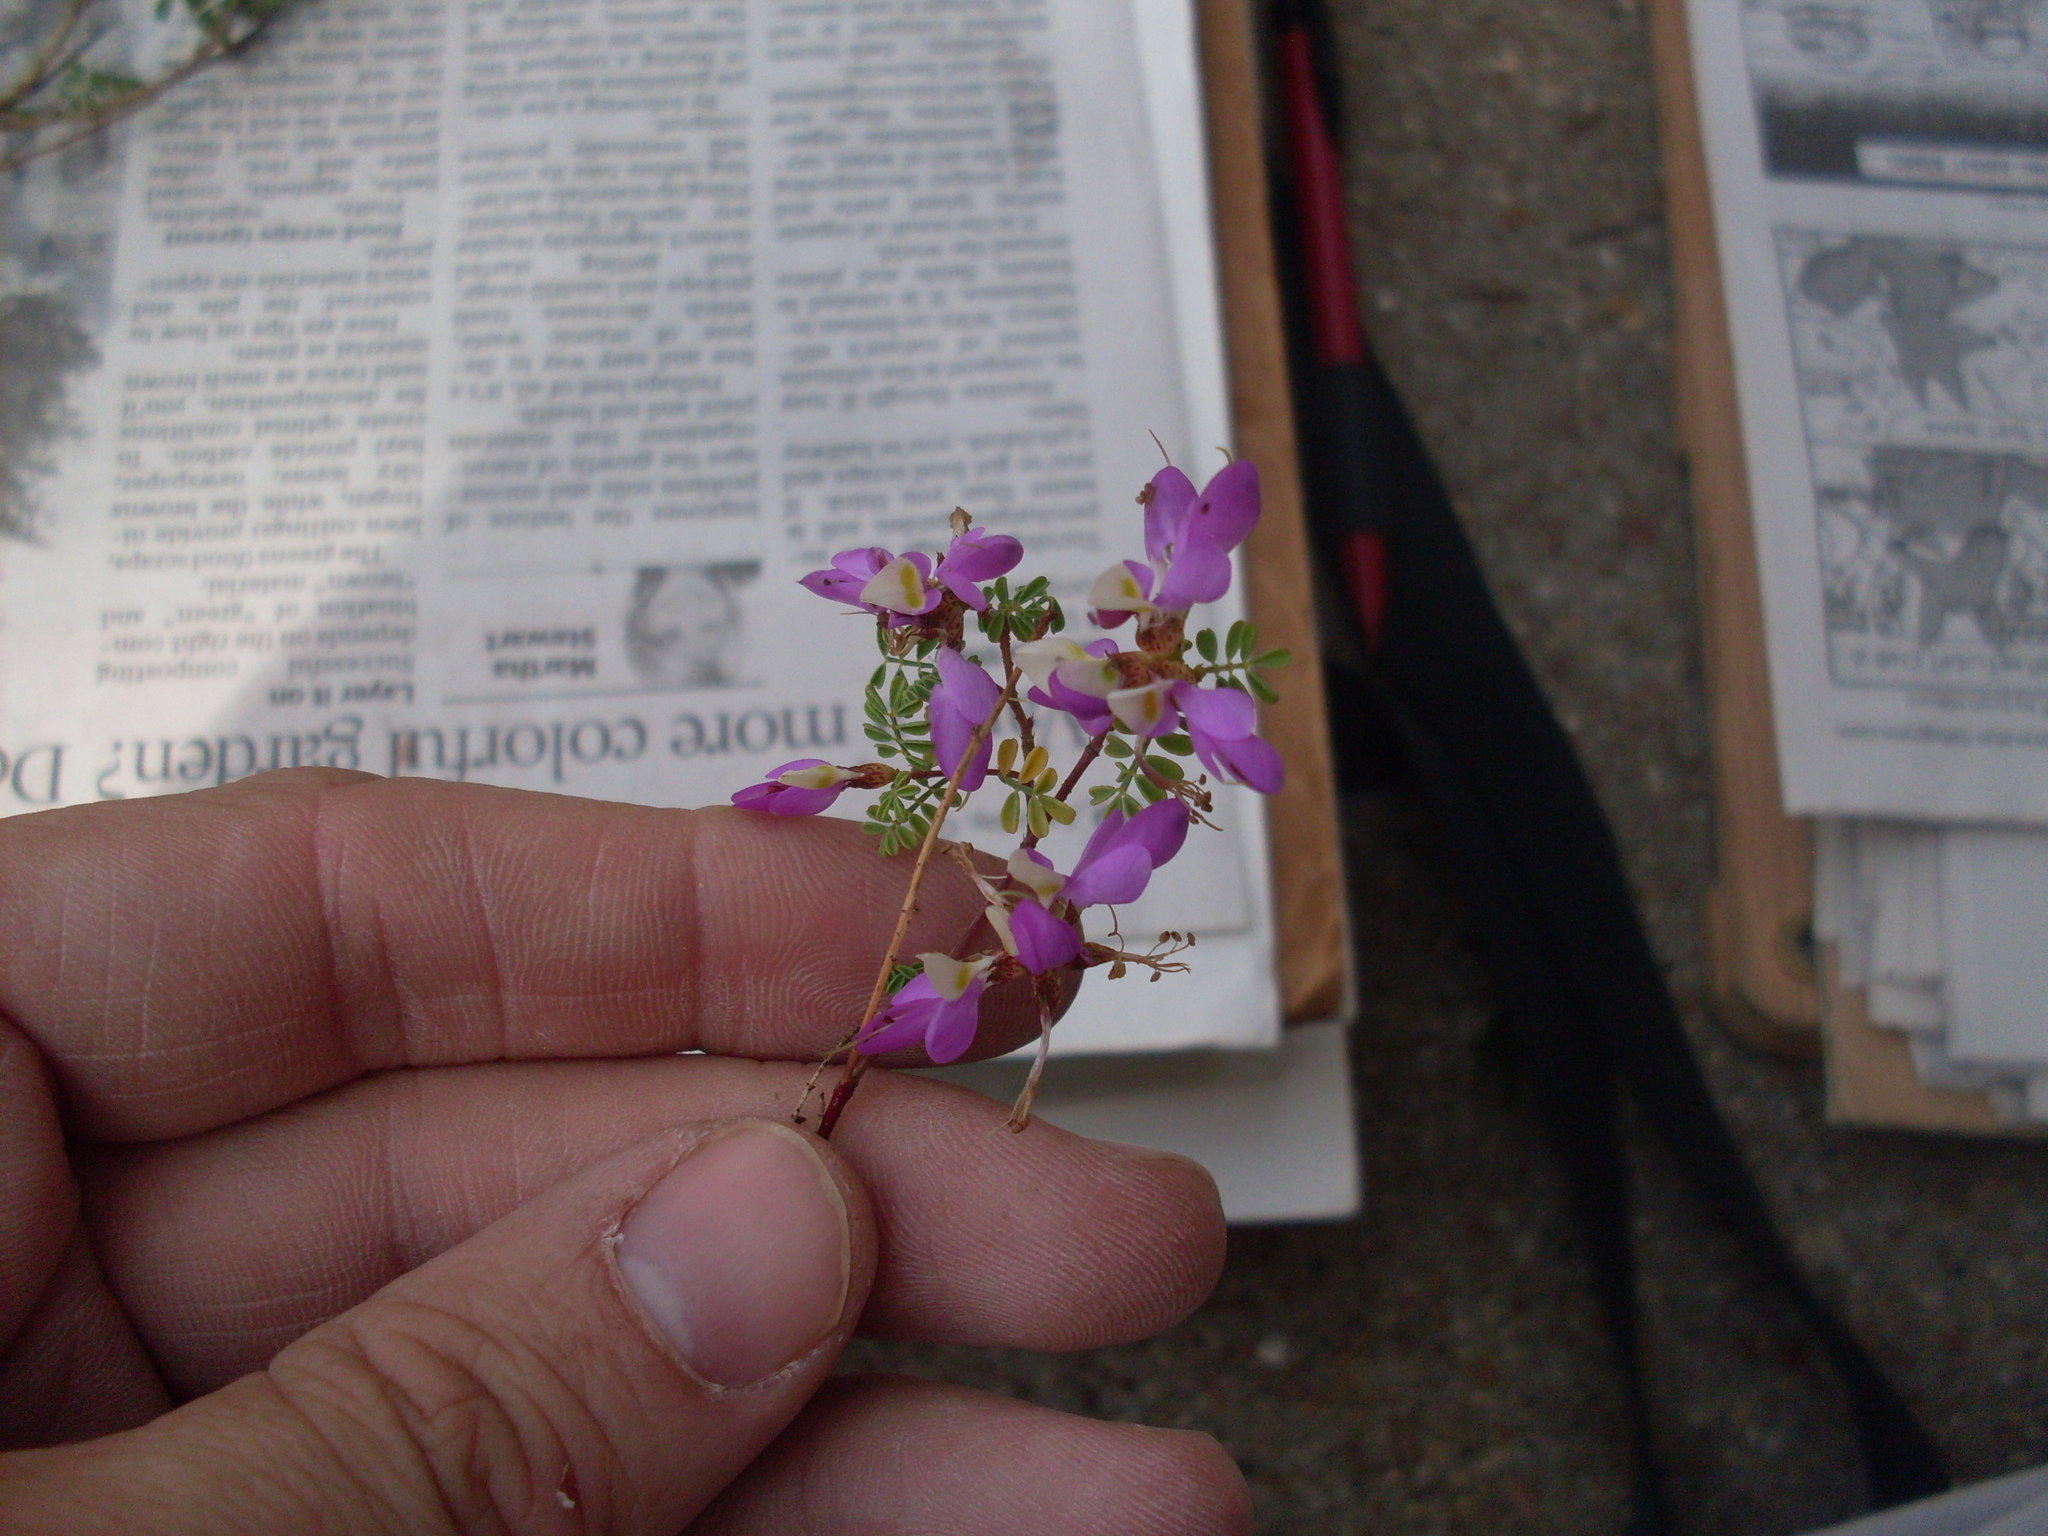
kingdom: Plantae
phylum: Tracheophyta
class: Magnoliopsida
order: Fabales
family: Fabaceae
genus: Dalea
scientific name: Dalea frutescens
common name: Black dalea
